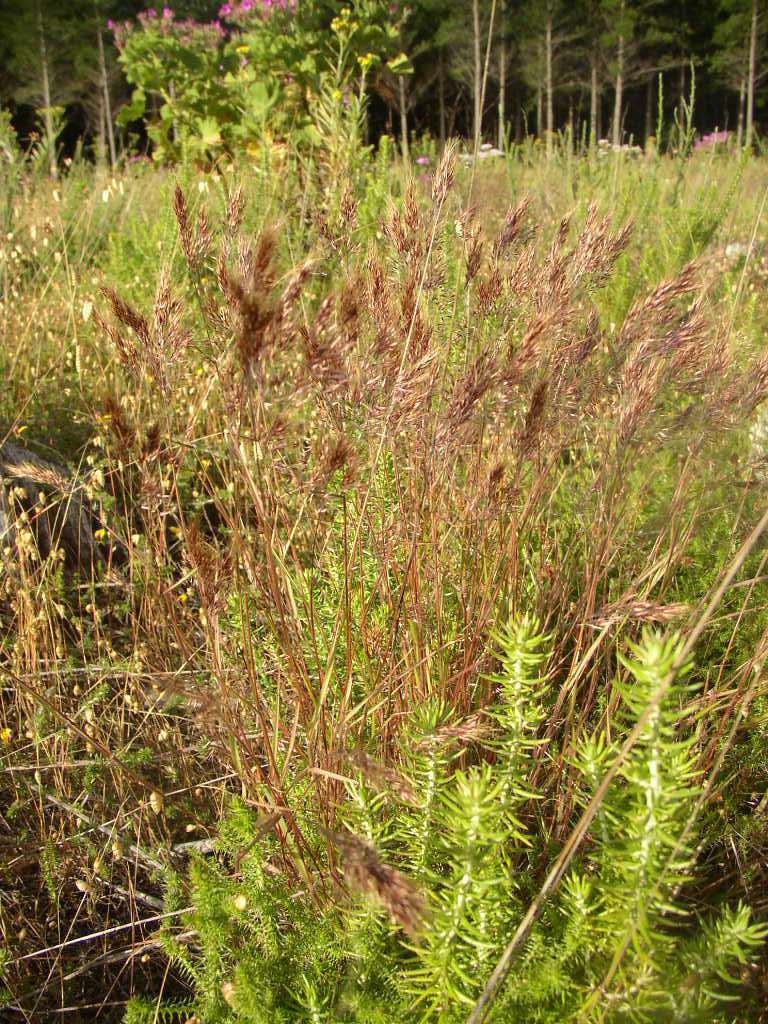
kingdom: Plantae
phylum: Tracheophyta
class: Liliopsida
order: Poales
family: Poaceae
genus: Pentameris
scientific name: Pentameris pallida
